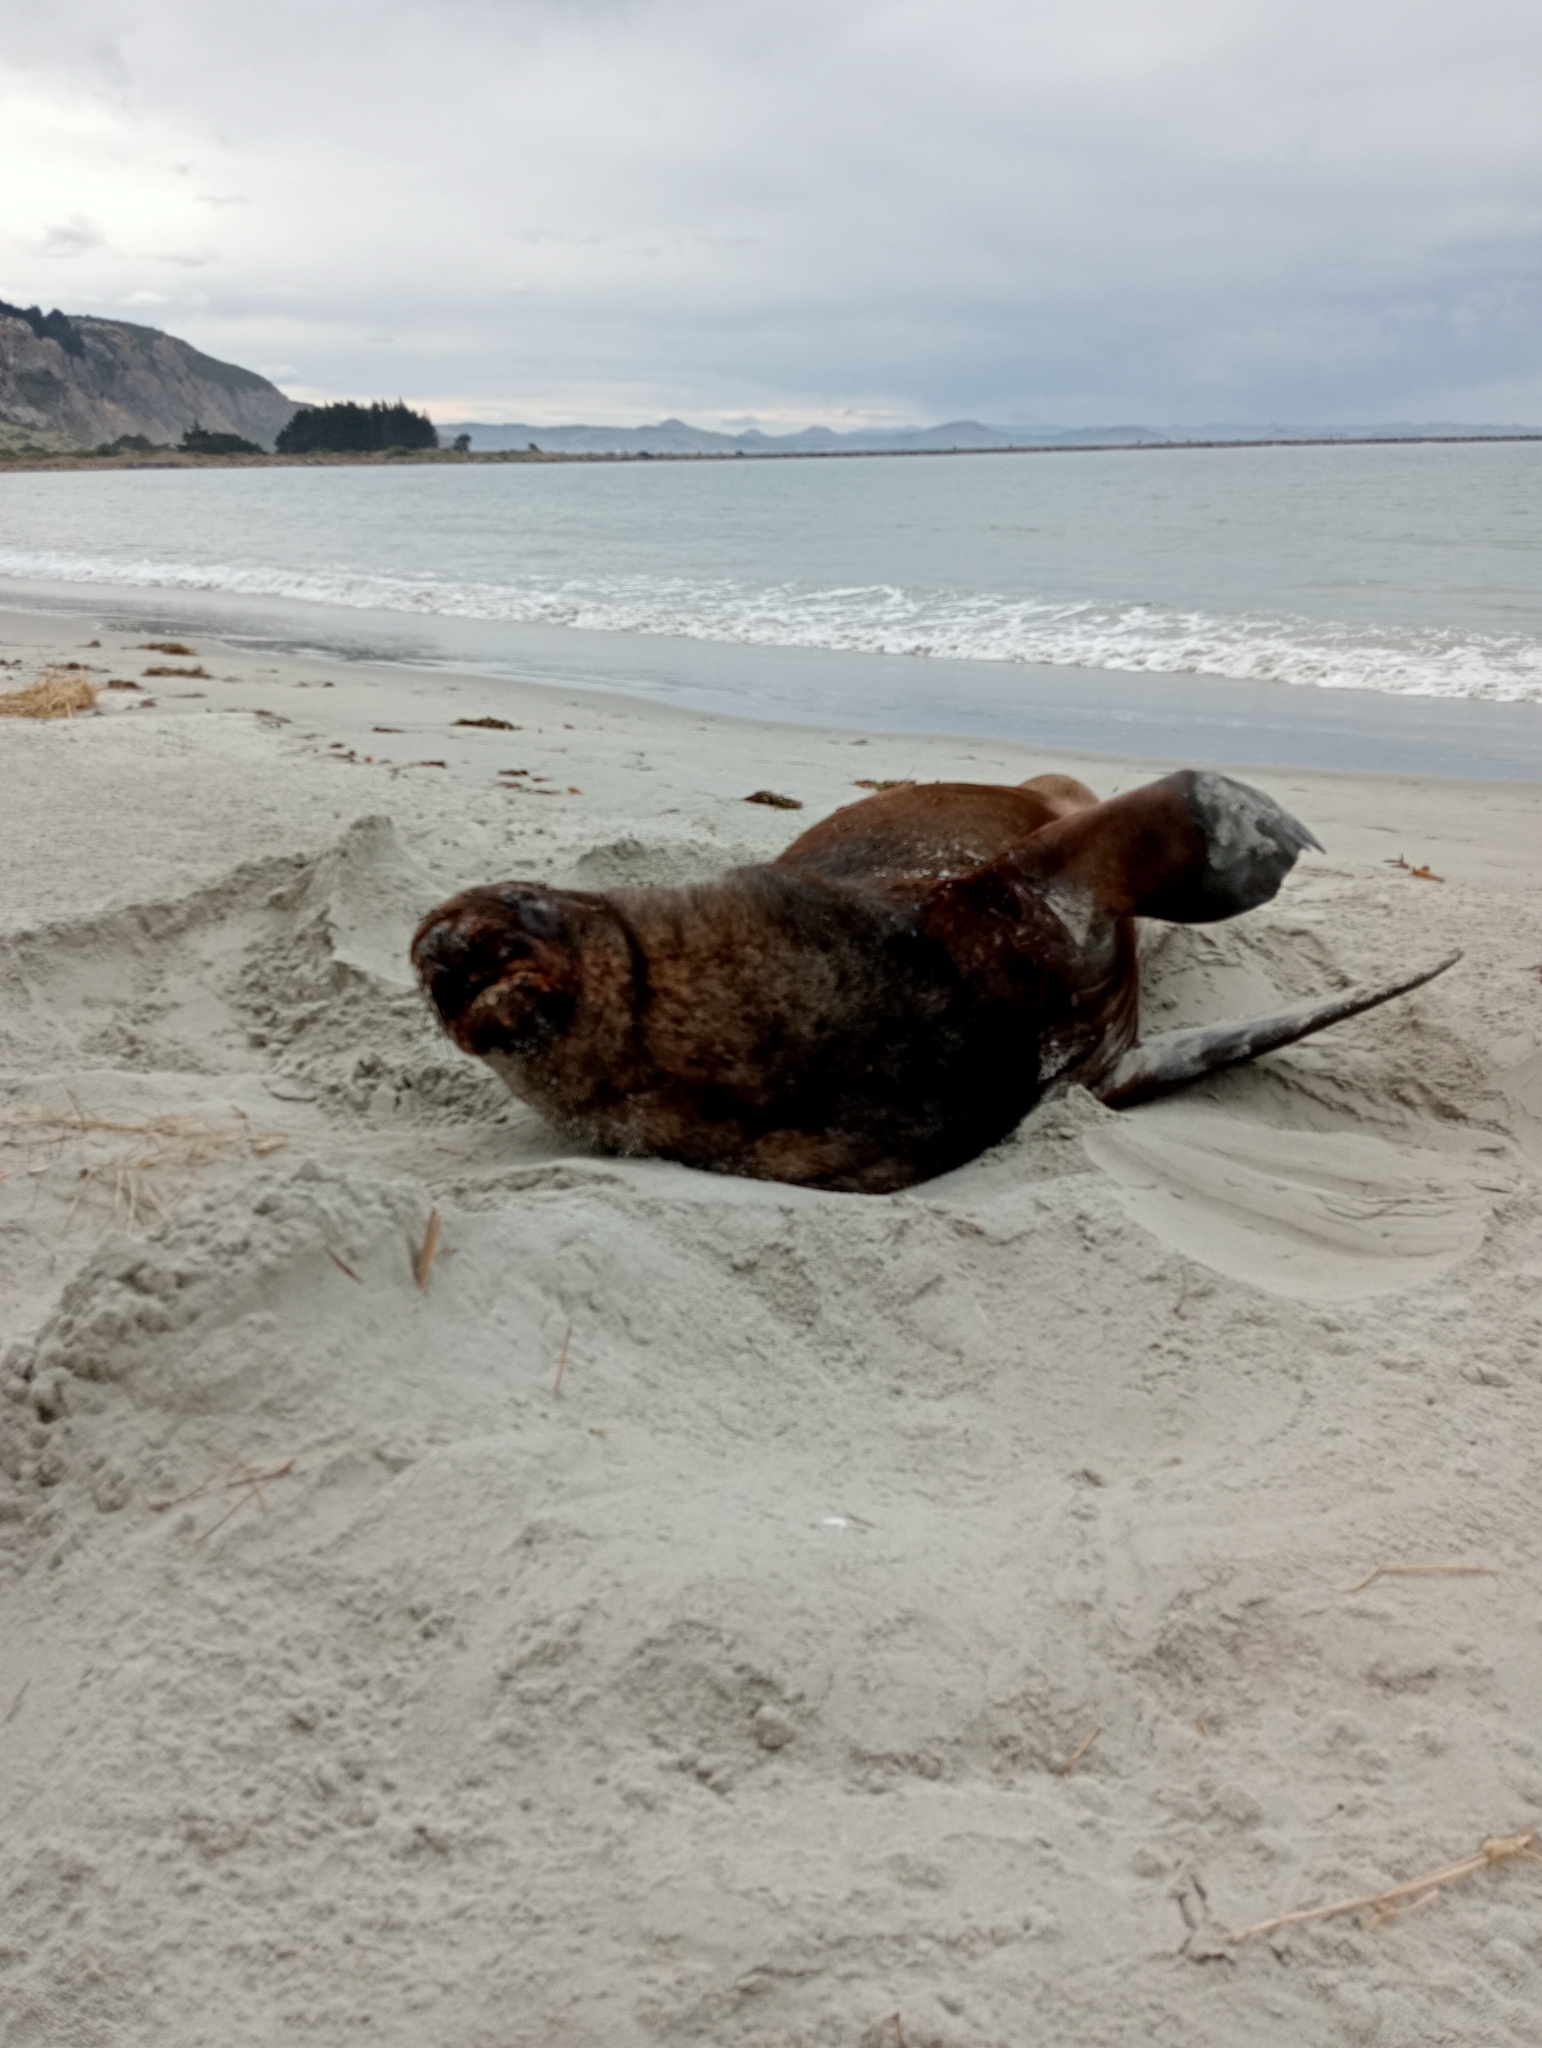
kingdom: Animalia
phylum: Chordata
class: Mammalia
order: Carnivora
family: Otariidae
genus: Phocarctos
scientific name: Phocarctos hookeri
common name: New zealand sea lion
